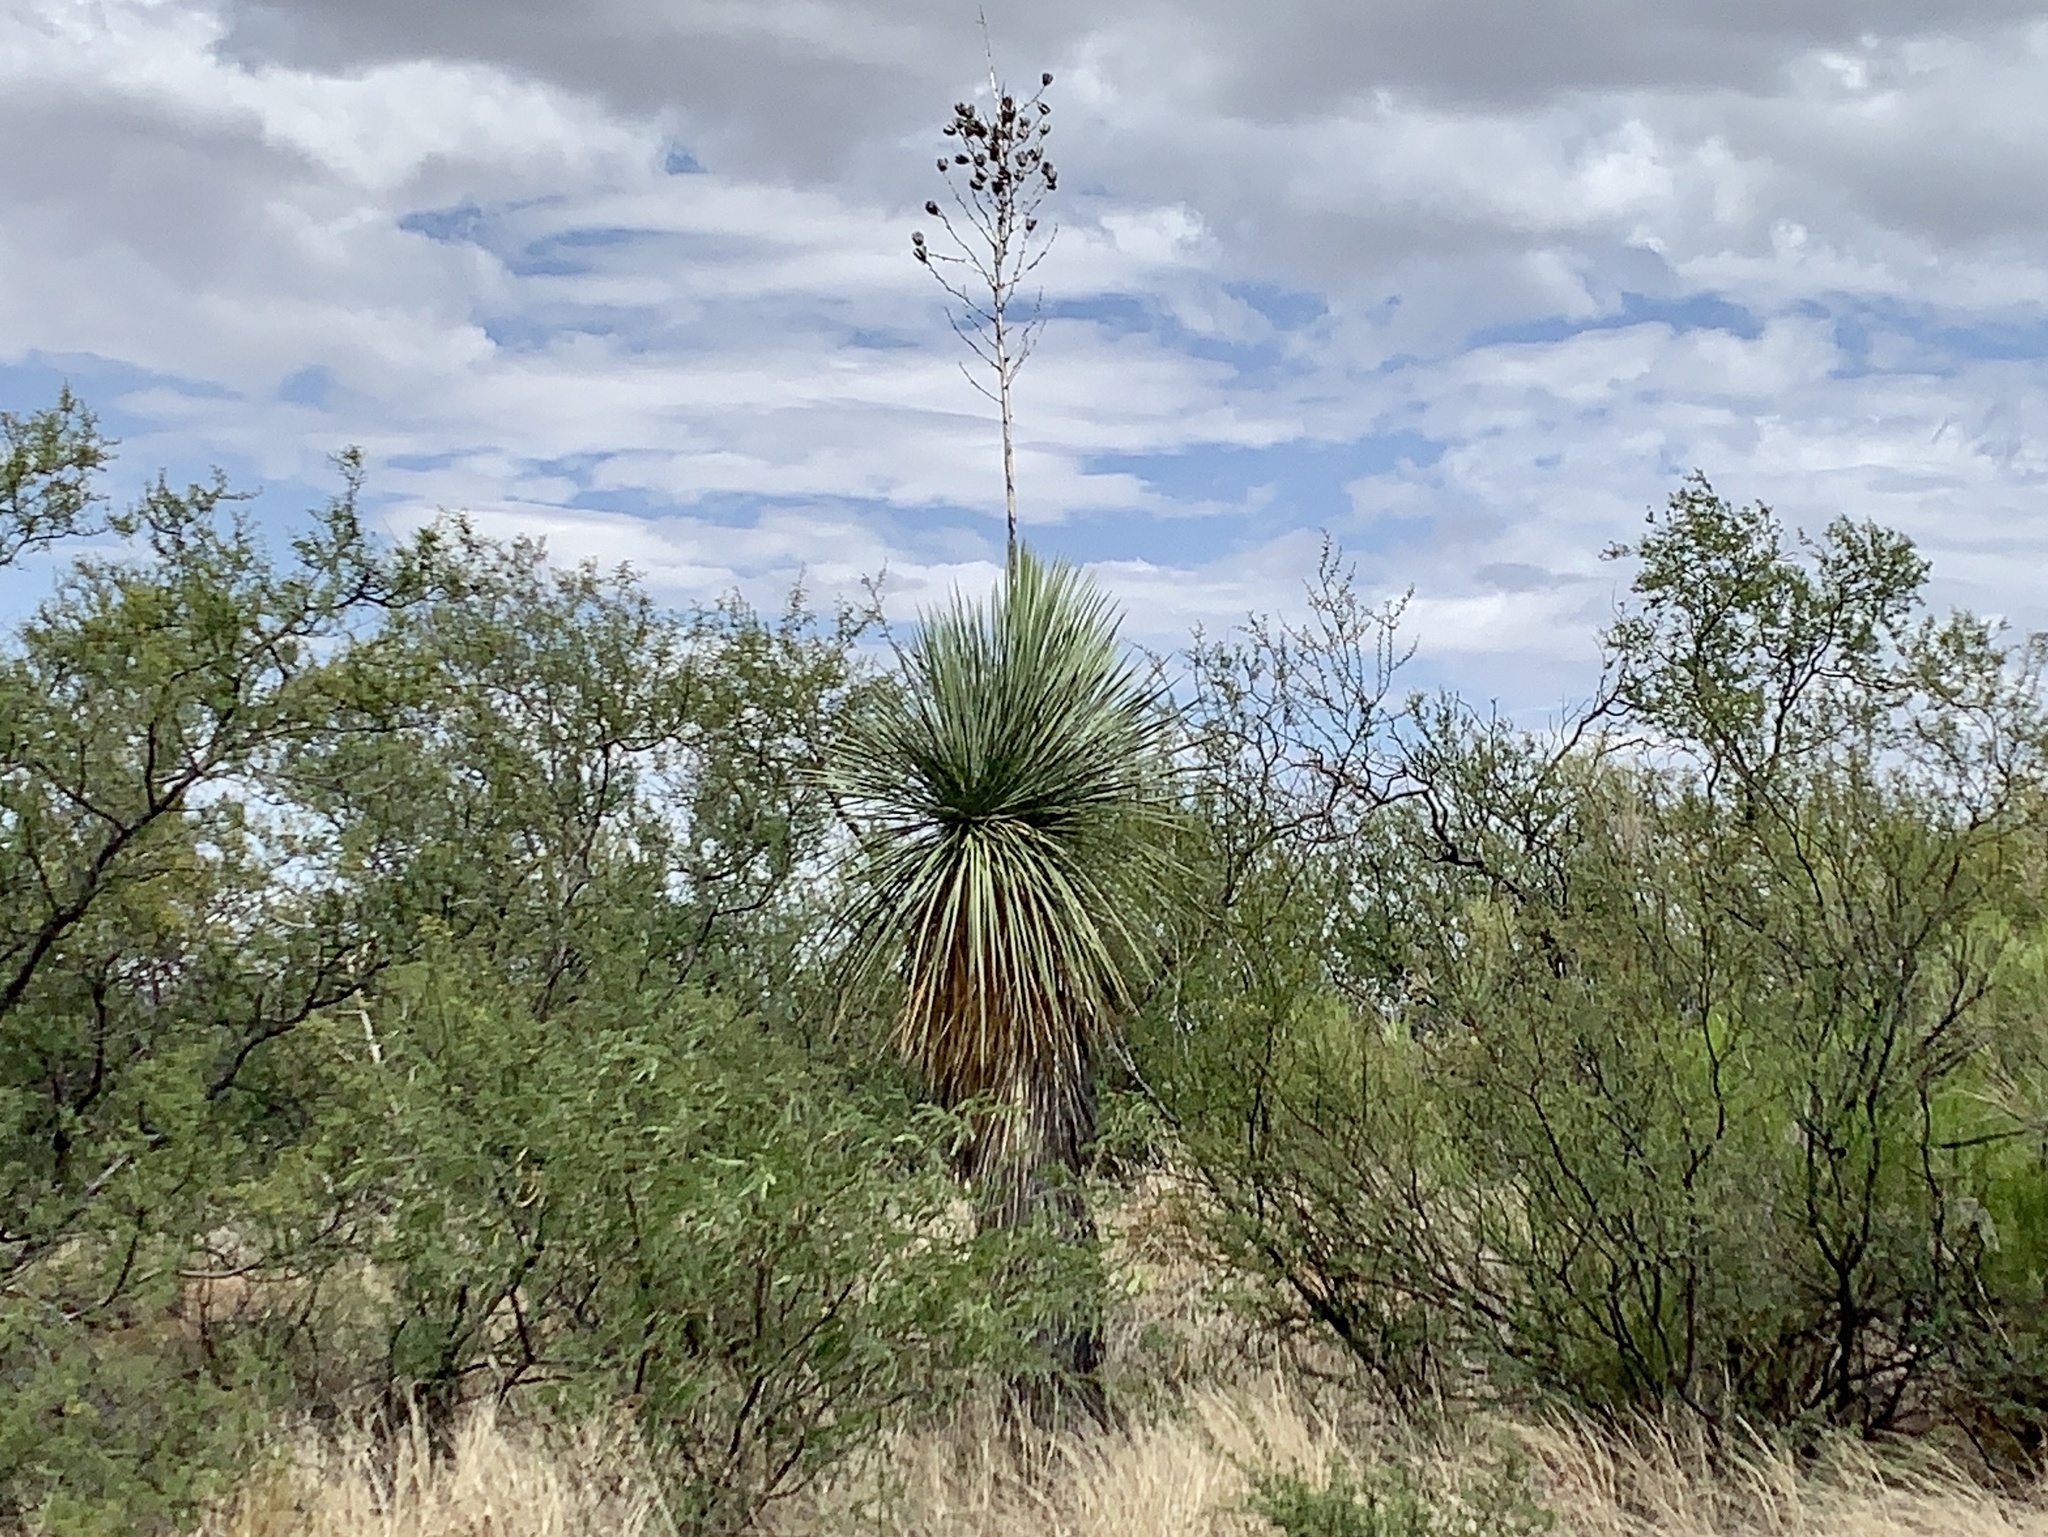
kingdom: Plantae
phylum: Tracheophyta
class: Liliopsida
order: Asparagales
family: Asparagaceae
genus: Yucca
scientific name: Yucca elata
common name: Palmella
